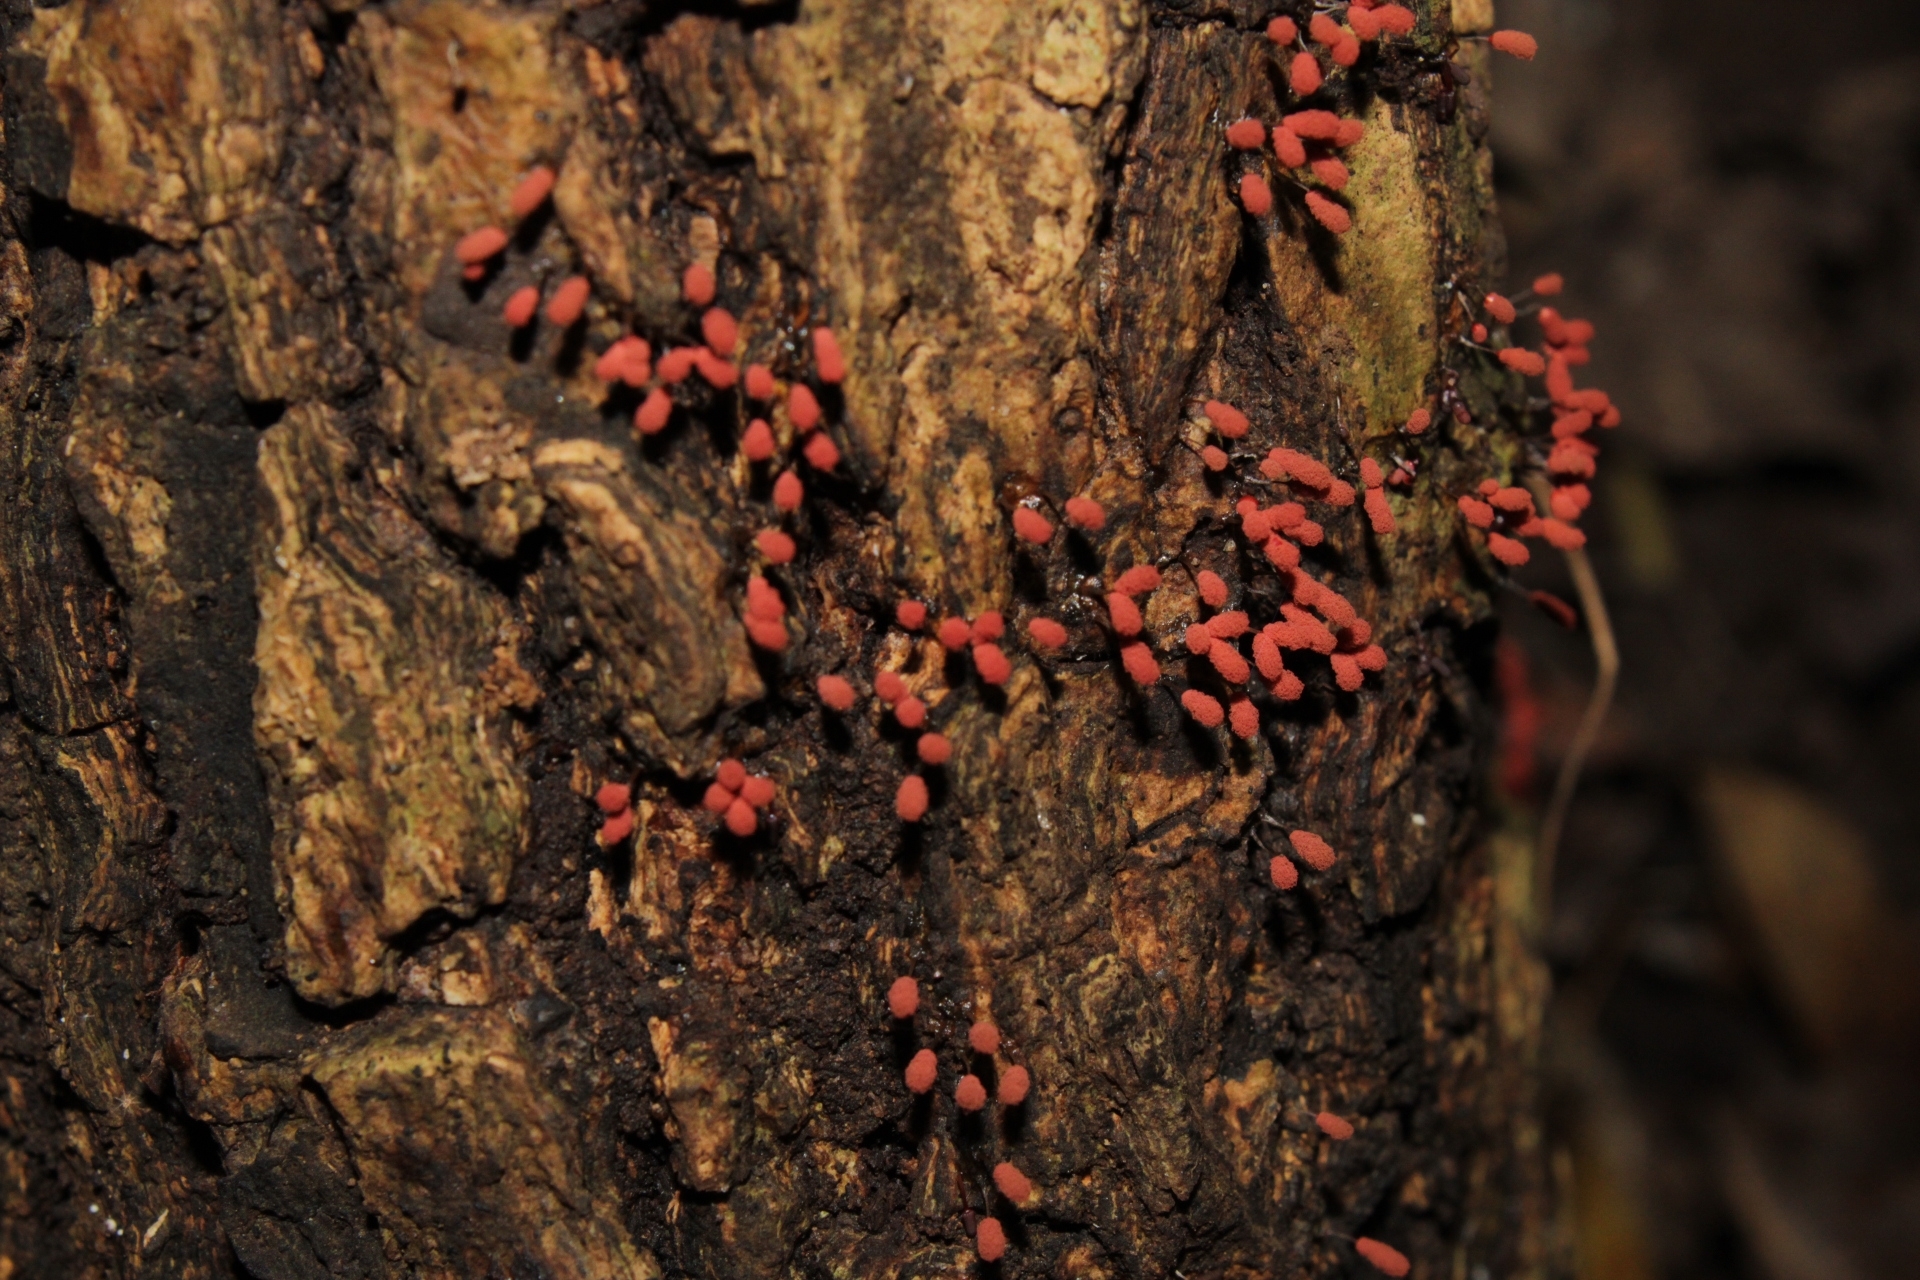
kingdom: Protozoa
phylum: Mycetozoa
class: Myxomycetes
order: Trichiales
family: Arcyriaceae
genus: Arcyria
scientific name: Arcyria denudata
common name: Carnival candy slime mold
